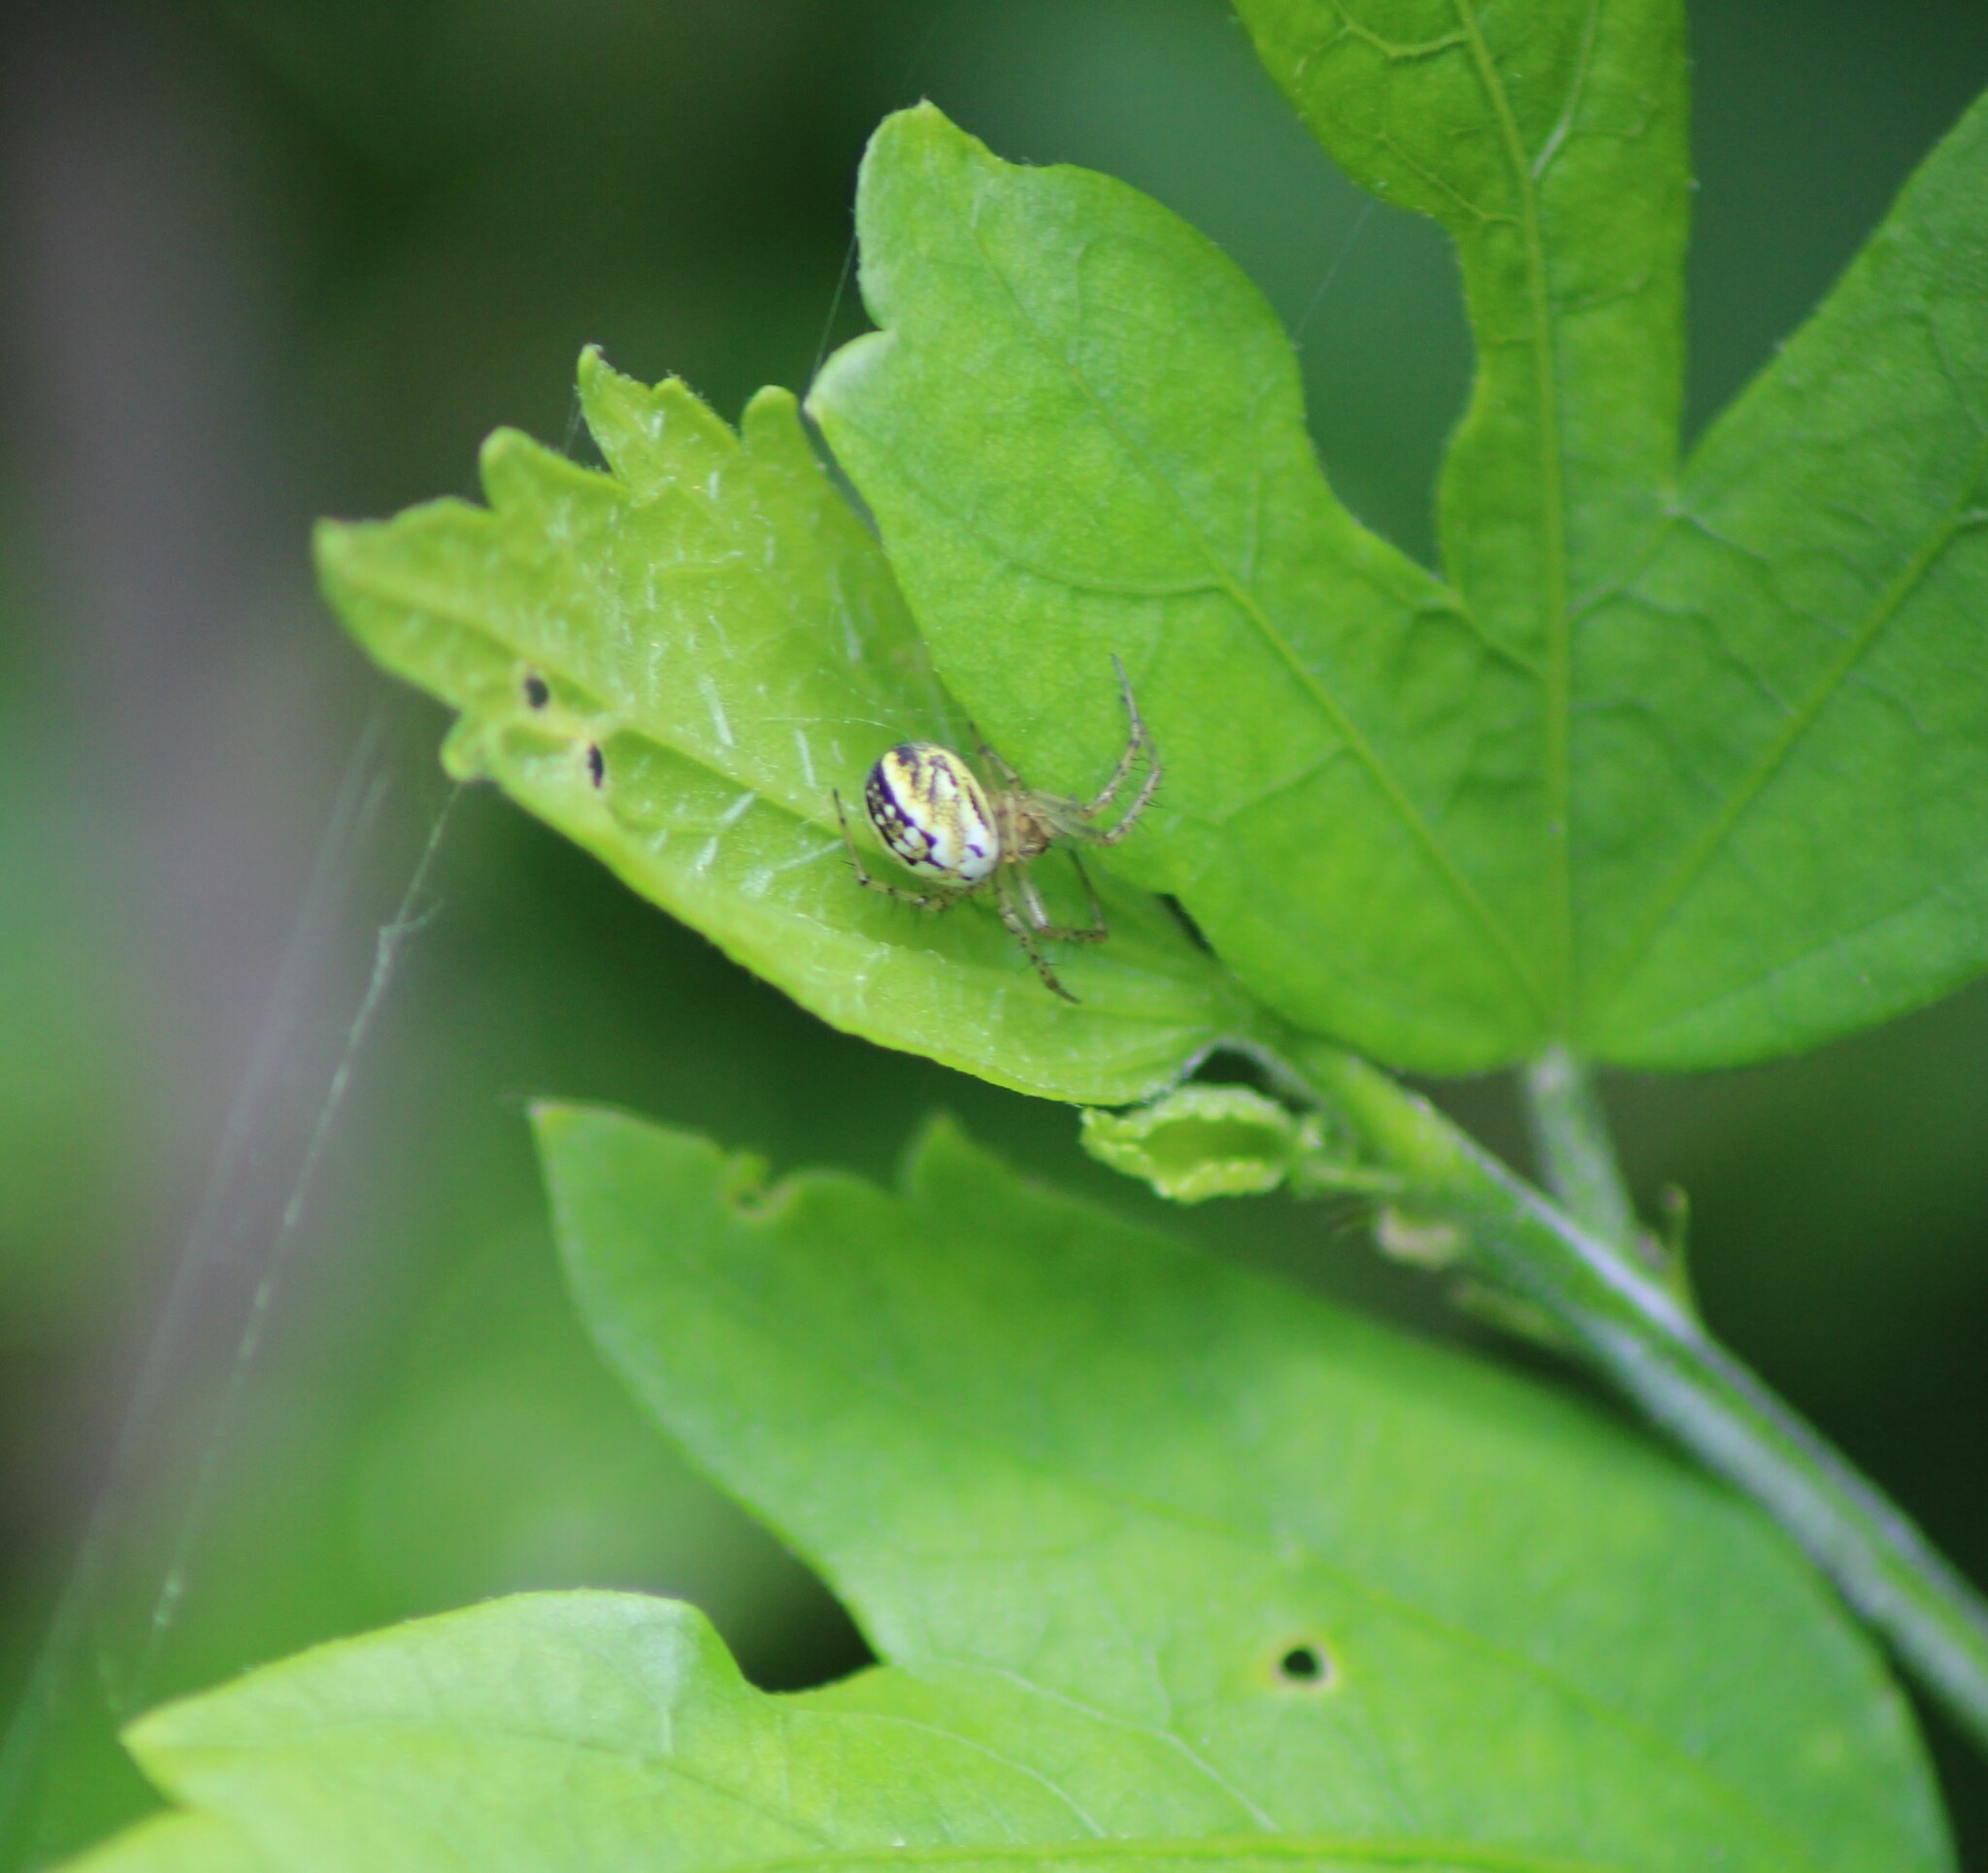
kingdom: Animalia
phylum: Arthropoda
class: Arachnida
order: Araneae
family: Araneidae
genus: Mangora
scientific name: Mangora acalypha
